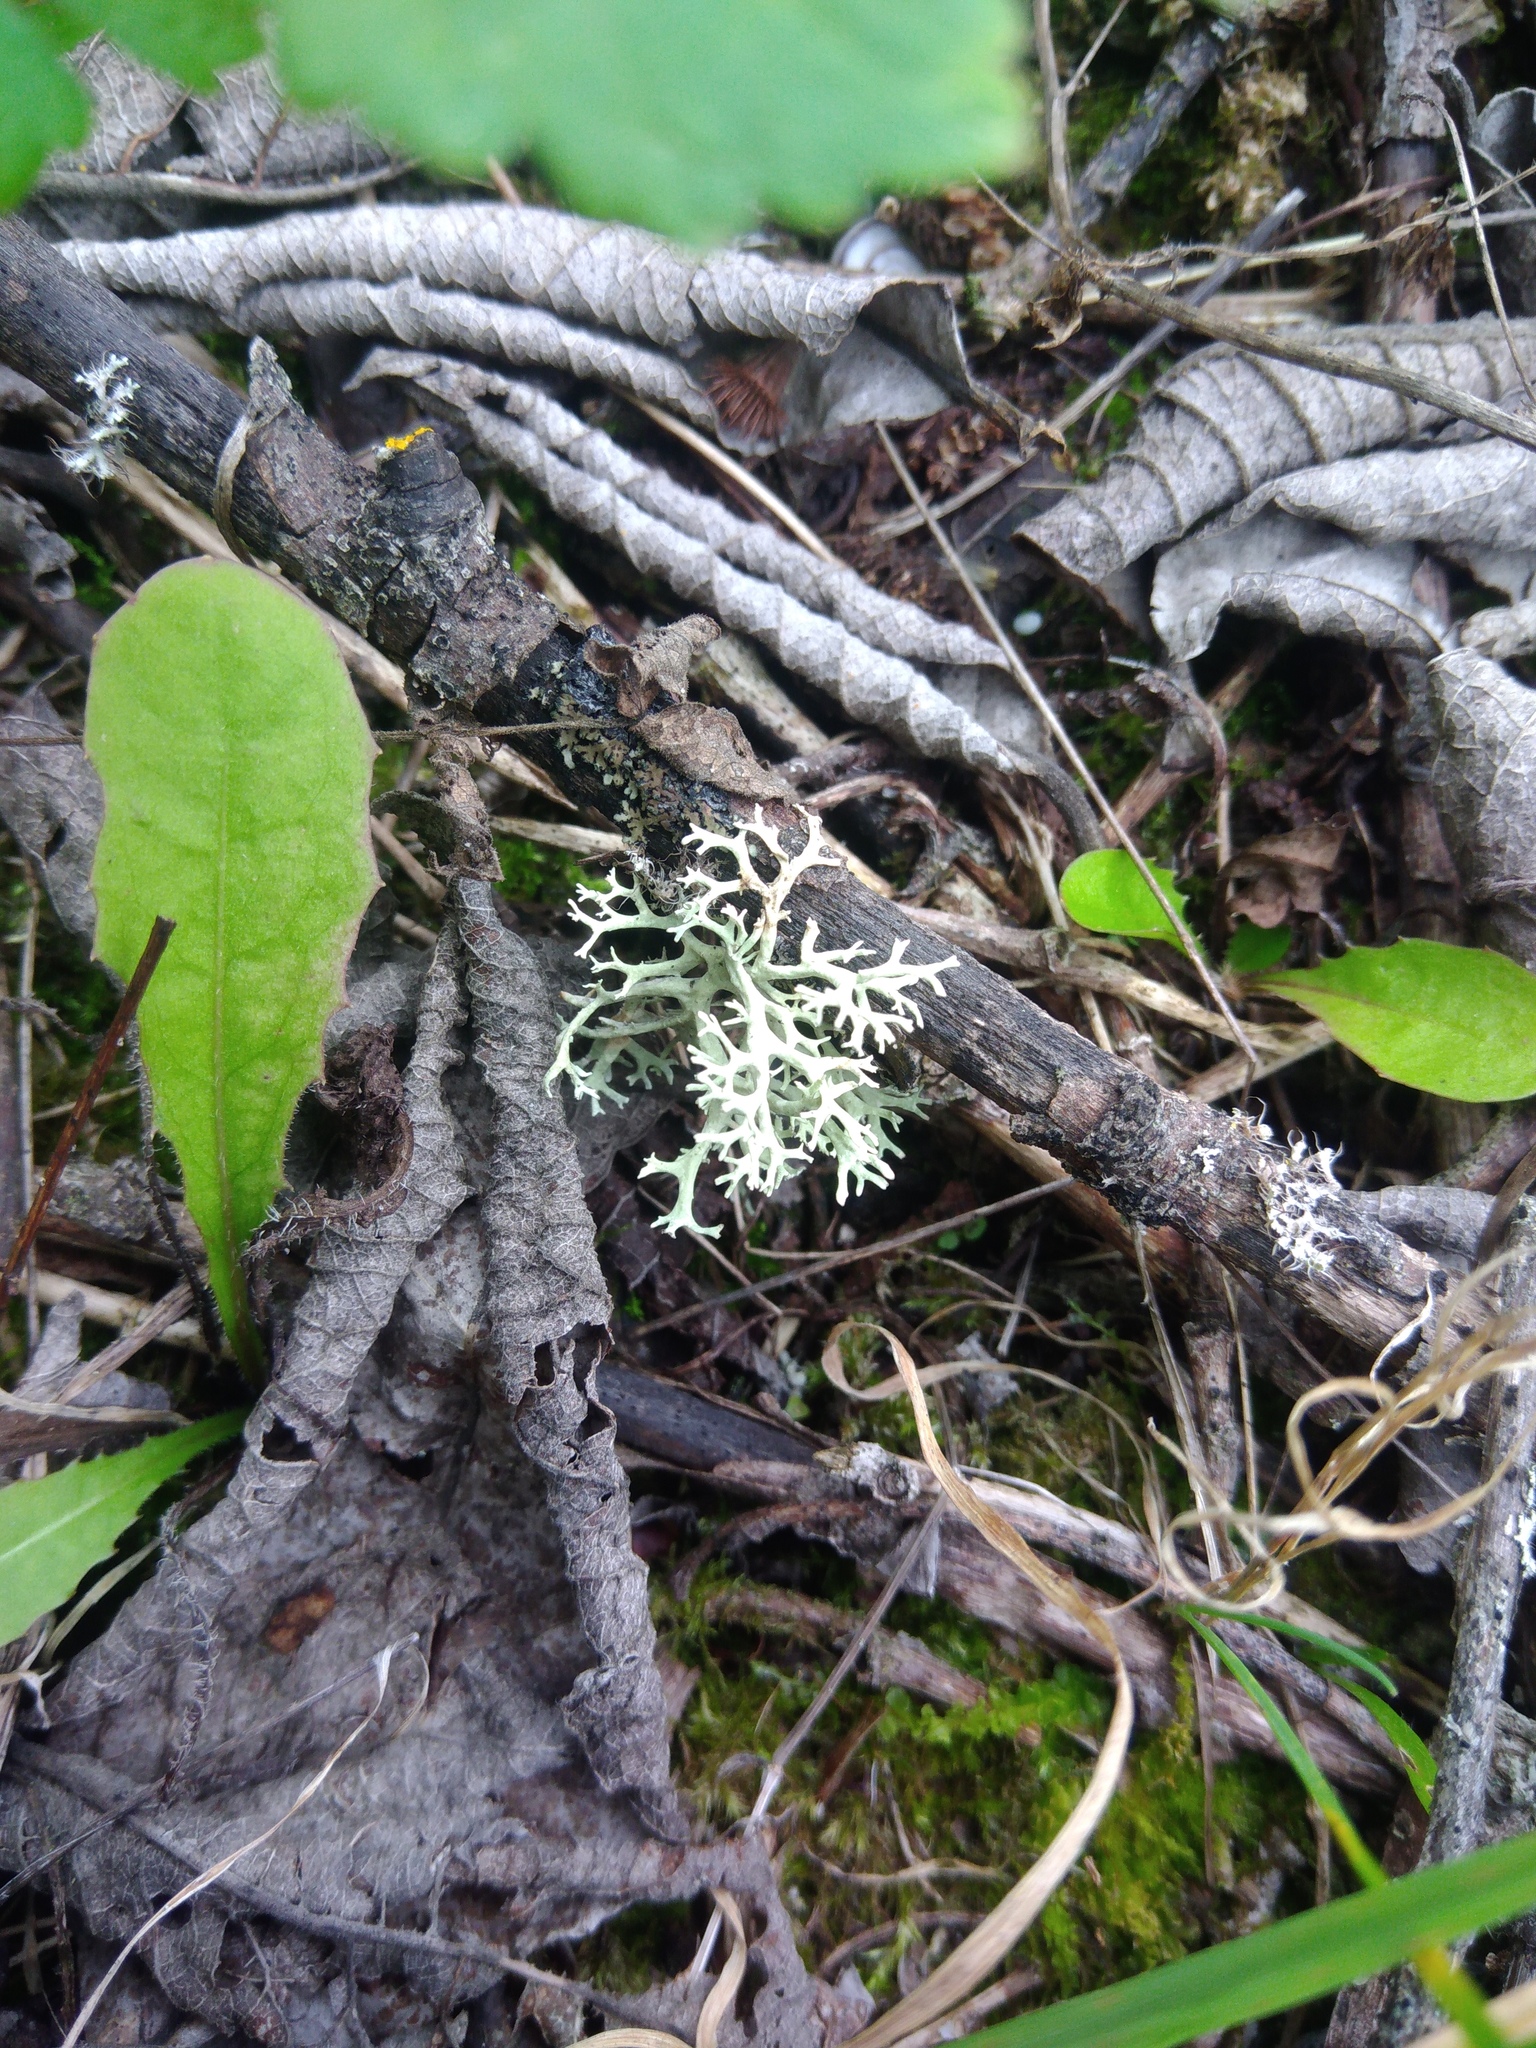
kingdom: Fungi
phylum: Ascomycota
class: Lecanoromycetes
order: Lecanorales
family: Parmeliaceae
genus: Evernia
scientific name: Evernia prunastri
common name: Oak moss
